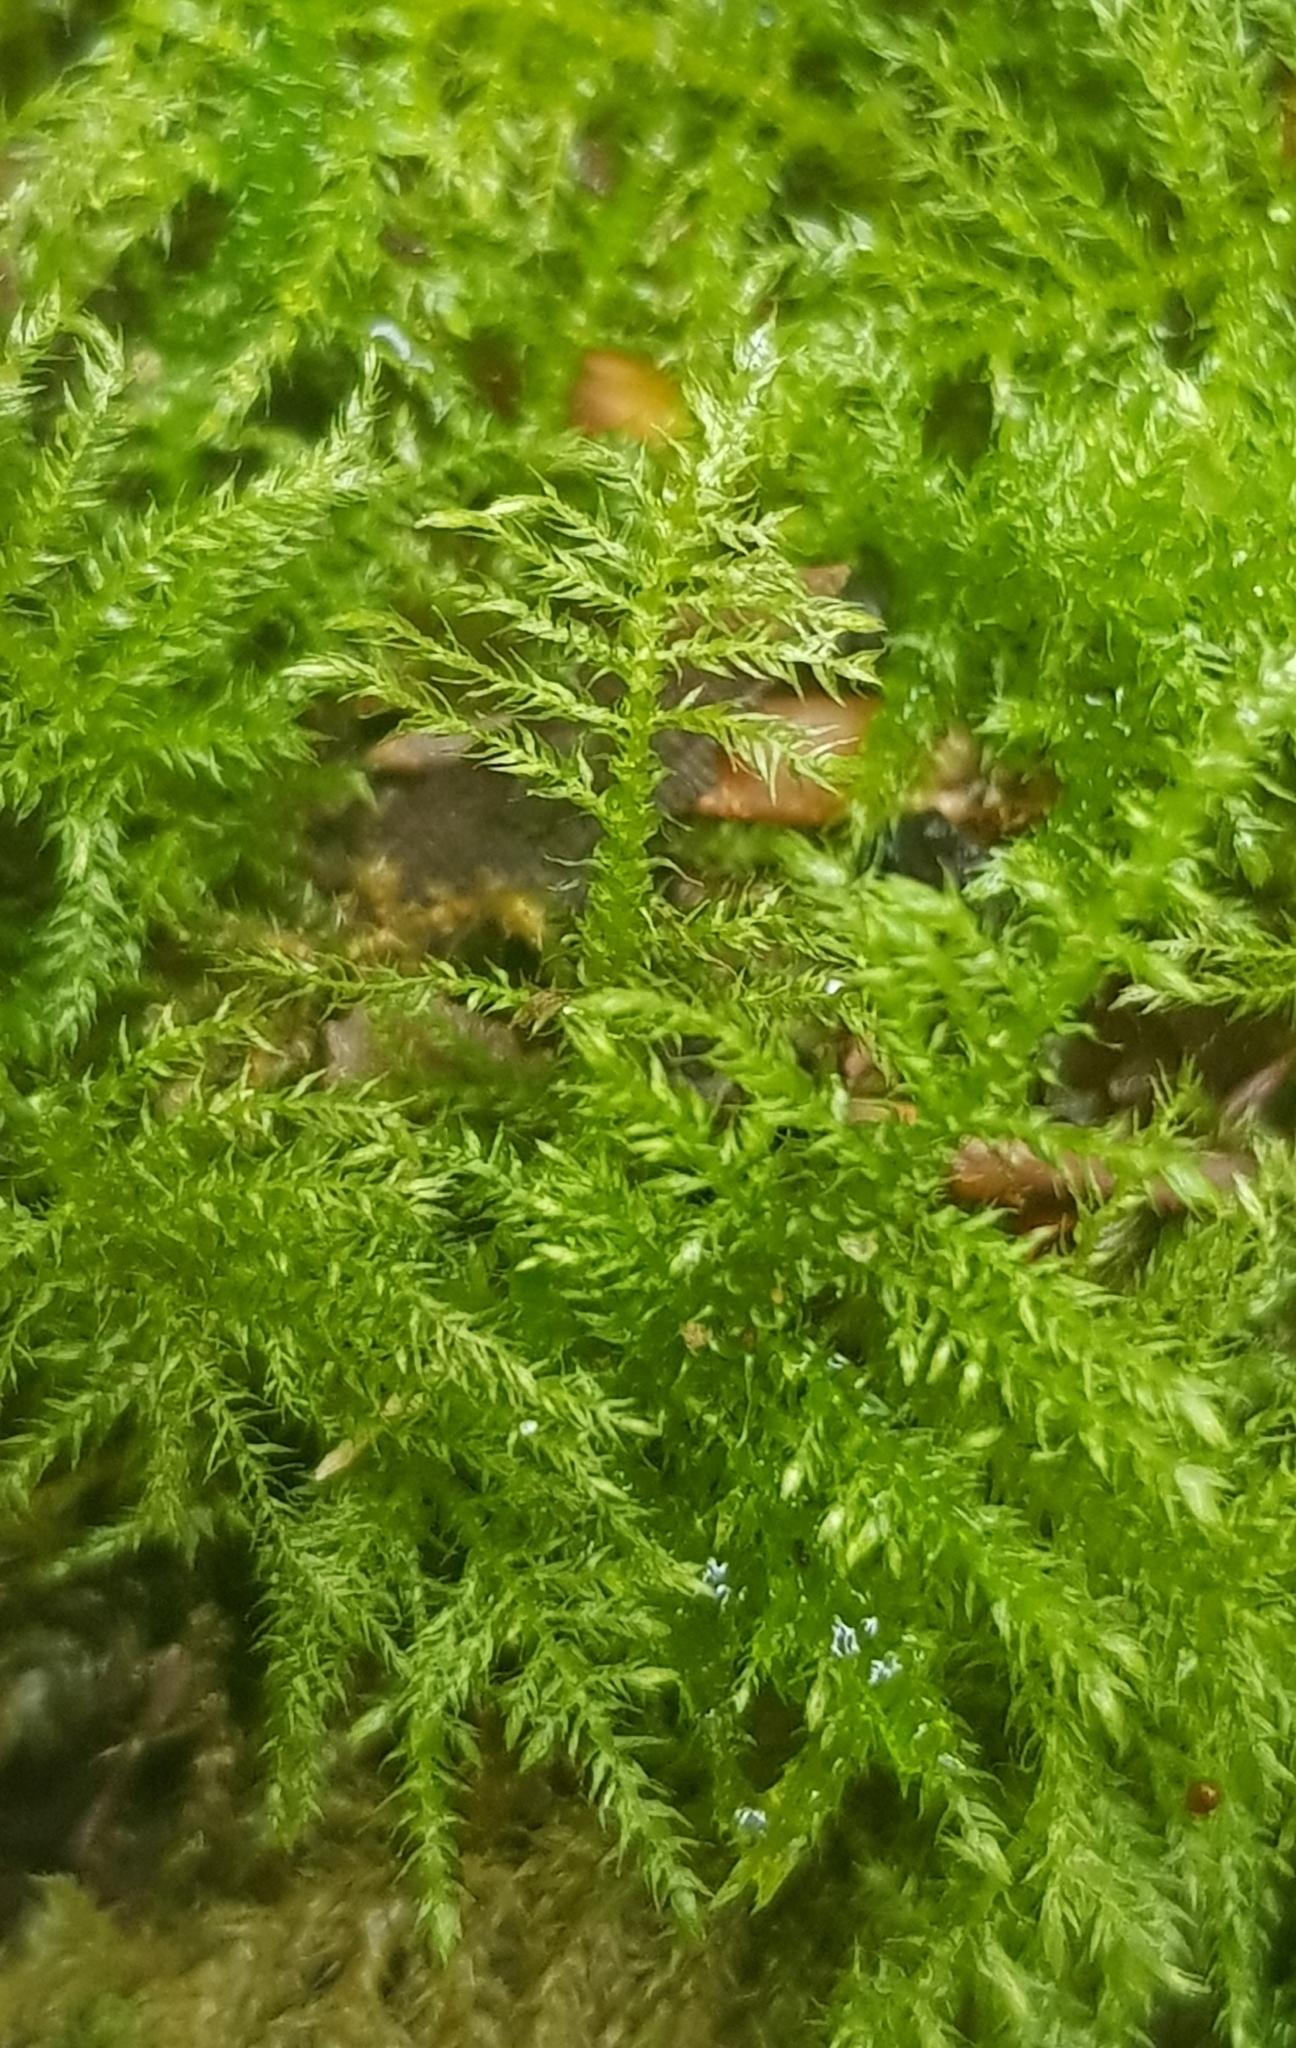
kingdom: Plantae
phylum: Bryophyta
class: Bryopsida
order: Hypnales
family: Brachytheciaceae
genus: Kindbergia
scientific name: Kindbergia praelonga
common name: Slender beaked moss
